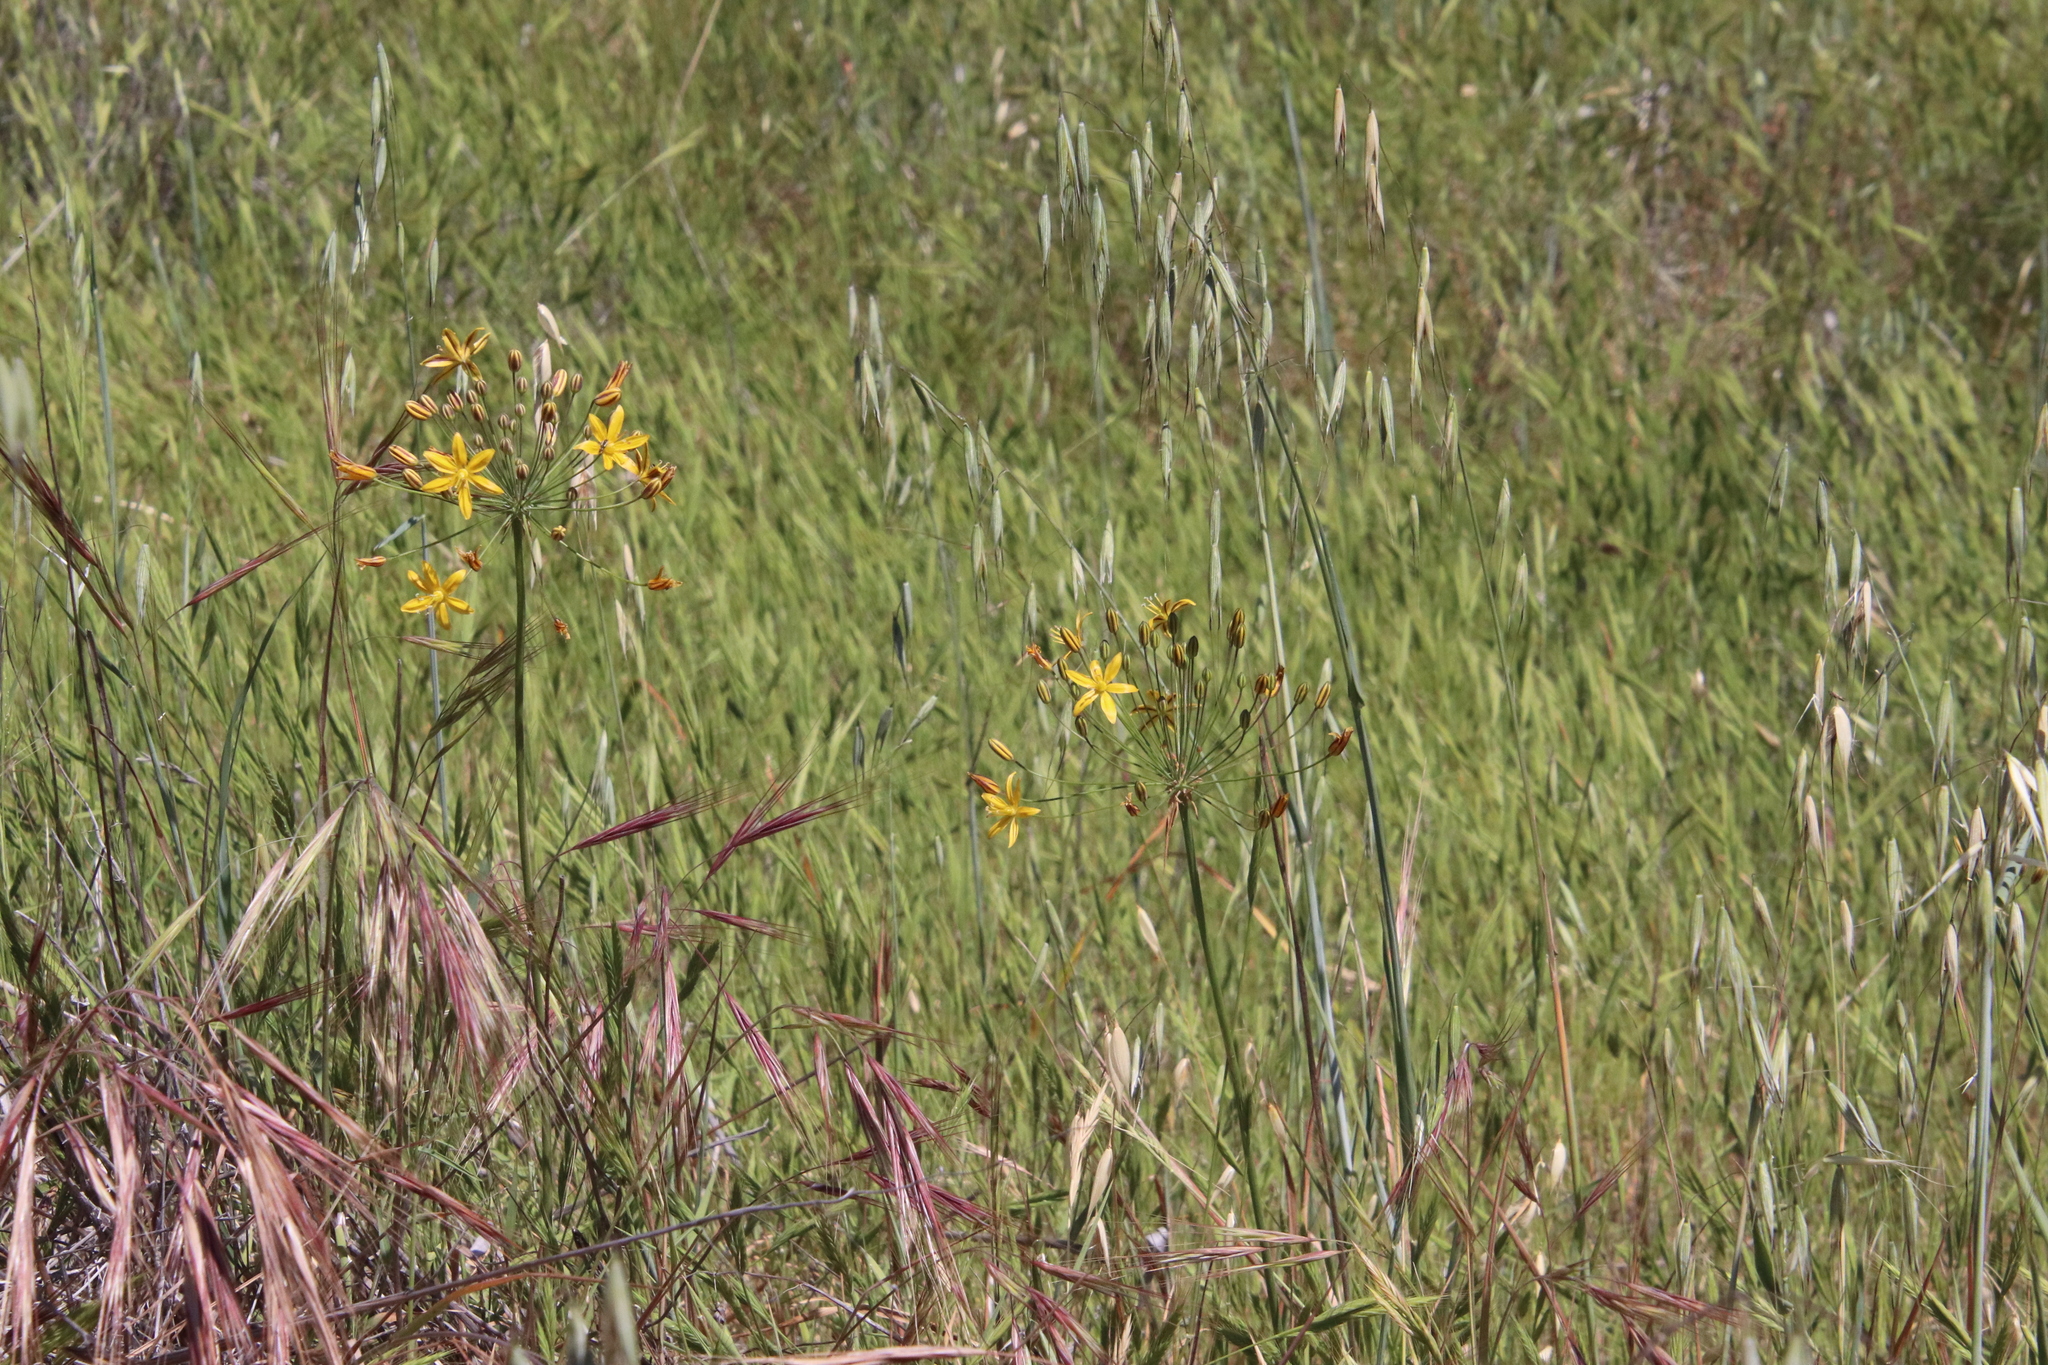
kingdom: Plantae
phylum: Tracheophyta
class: Liliopsida
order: Asparagales
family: Asparagaceae
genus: Bloomeria
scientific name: Bloomeria crocea
